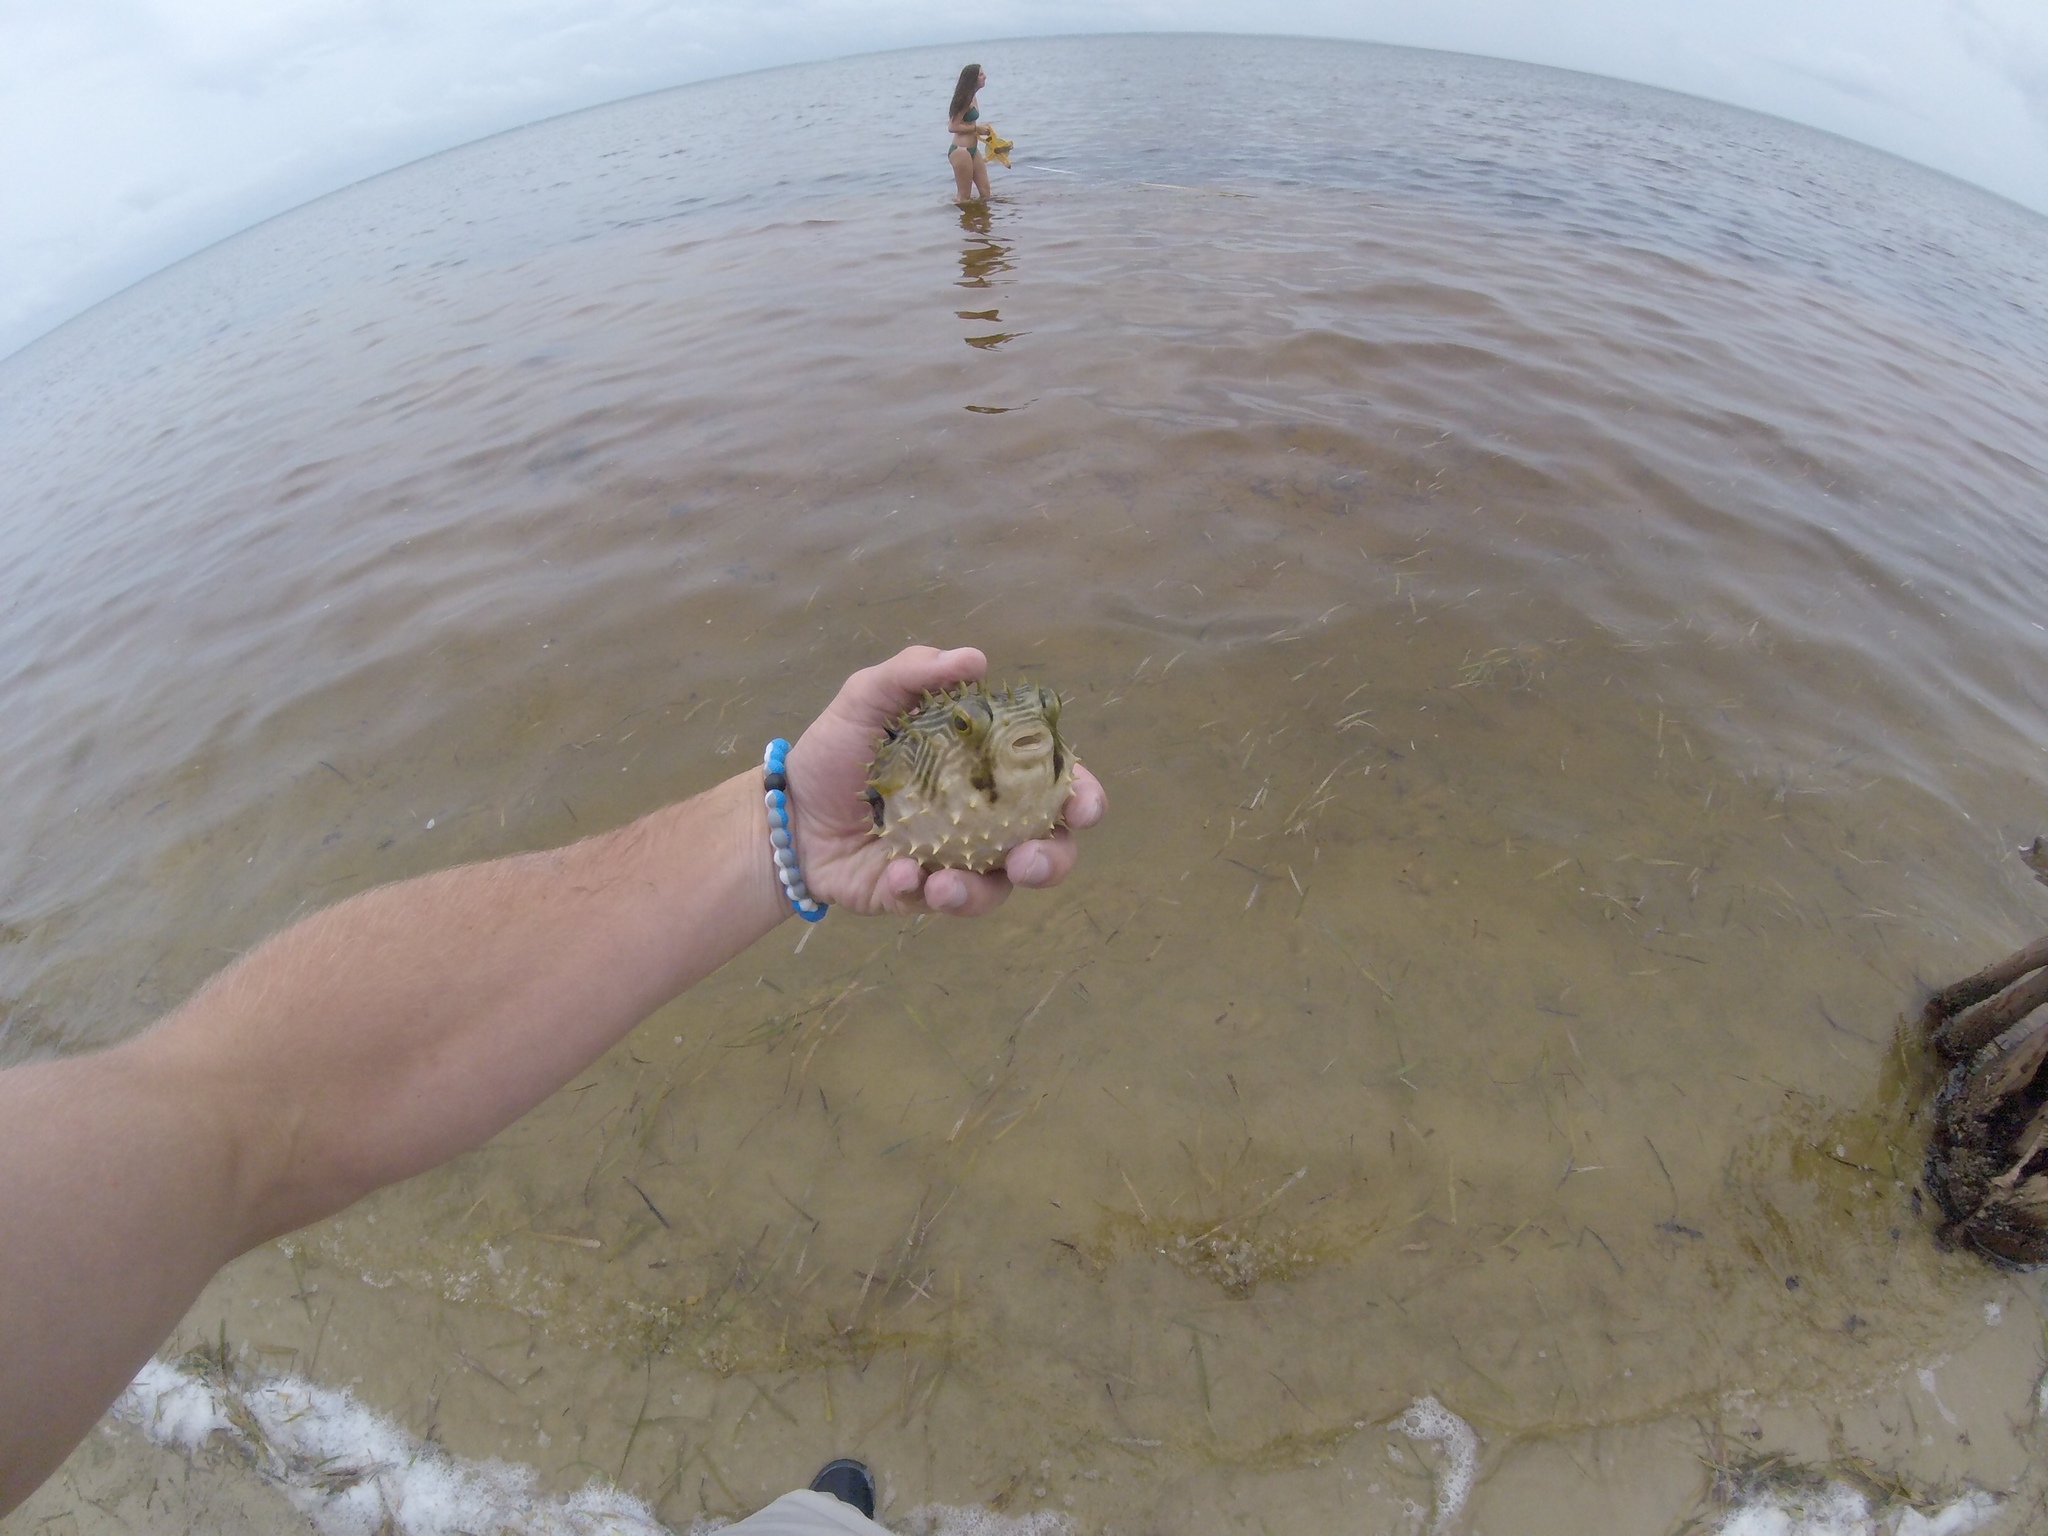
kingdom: Animalia
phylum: Chordata
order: Tetraodontiformes
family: Diodontidae
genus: Chilomycterus
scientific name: Chilomycterus schoepfii
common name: Striped burrfish
